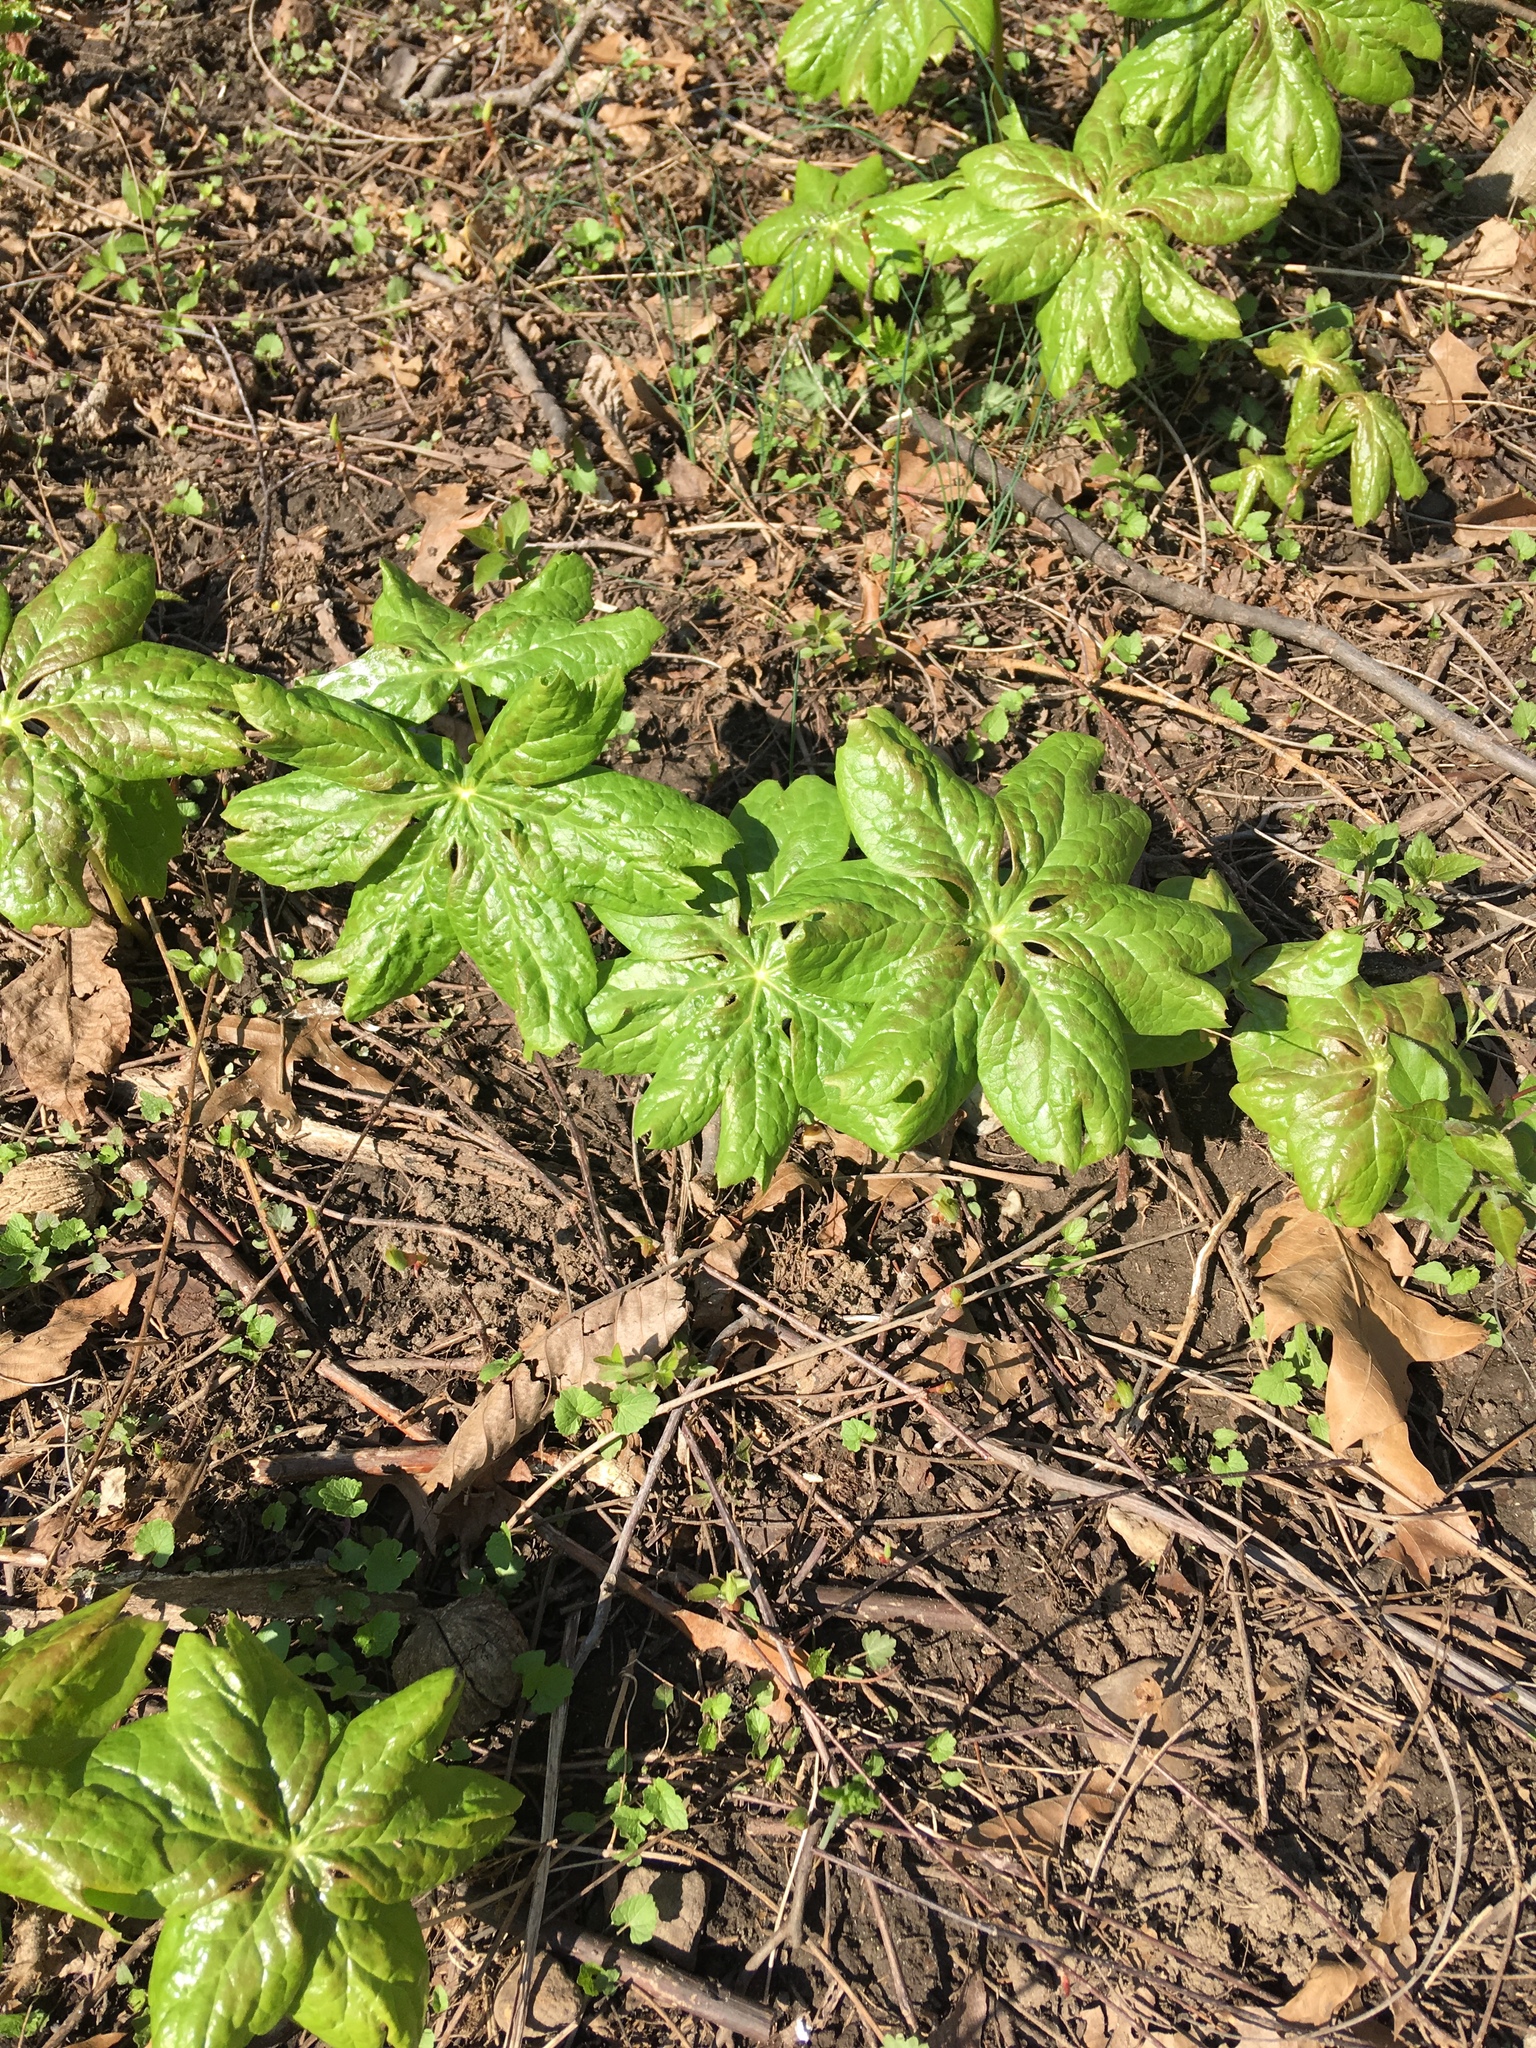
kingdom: Plantae
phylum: Tracheophyta
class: Magnoliopsida
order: Ranunculales
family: Berberidaceae
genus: Podophyllum
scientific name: Podophyllum peltatum
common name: Wild mandrake
